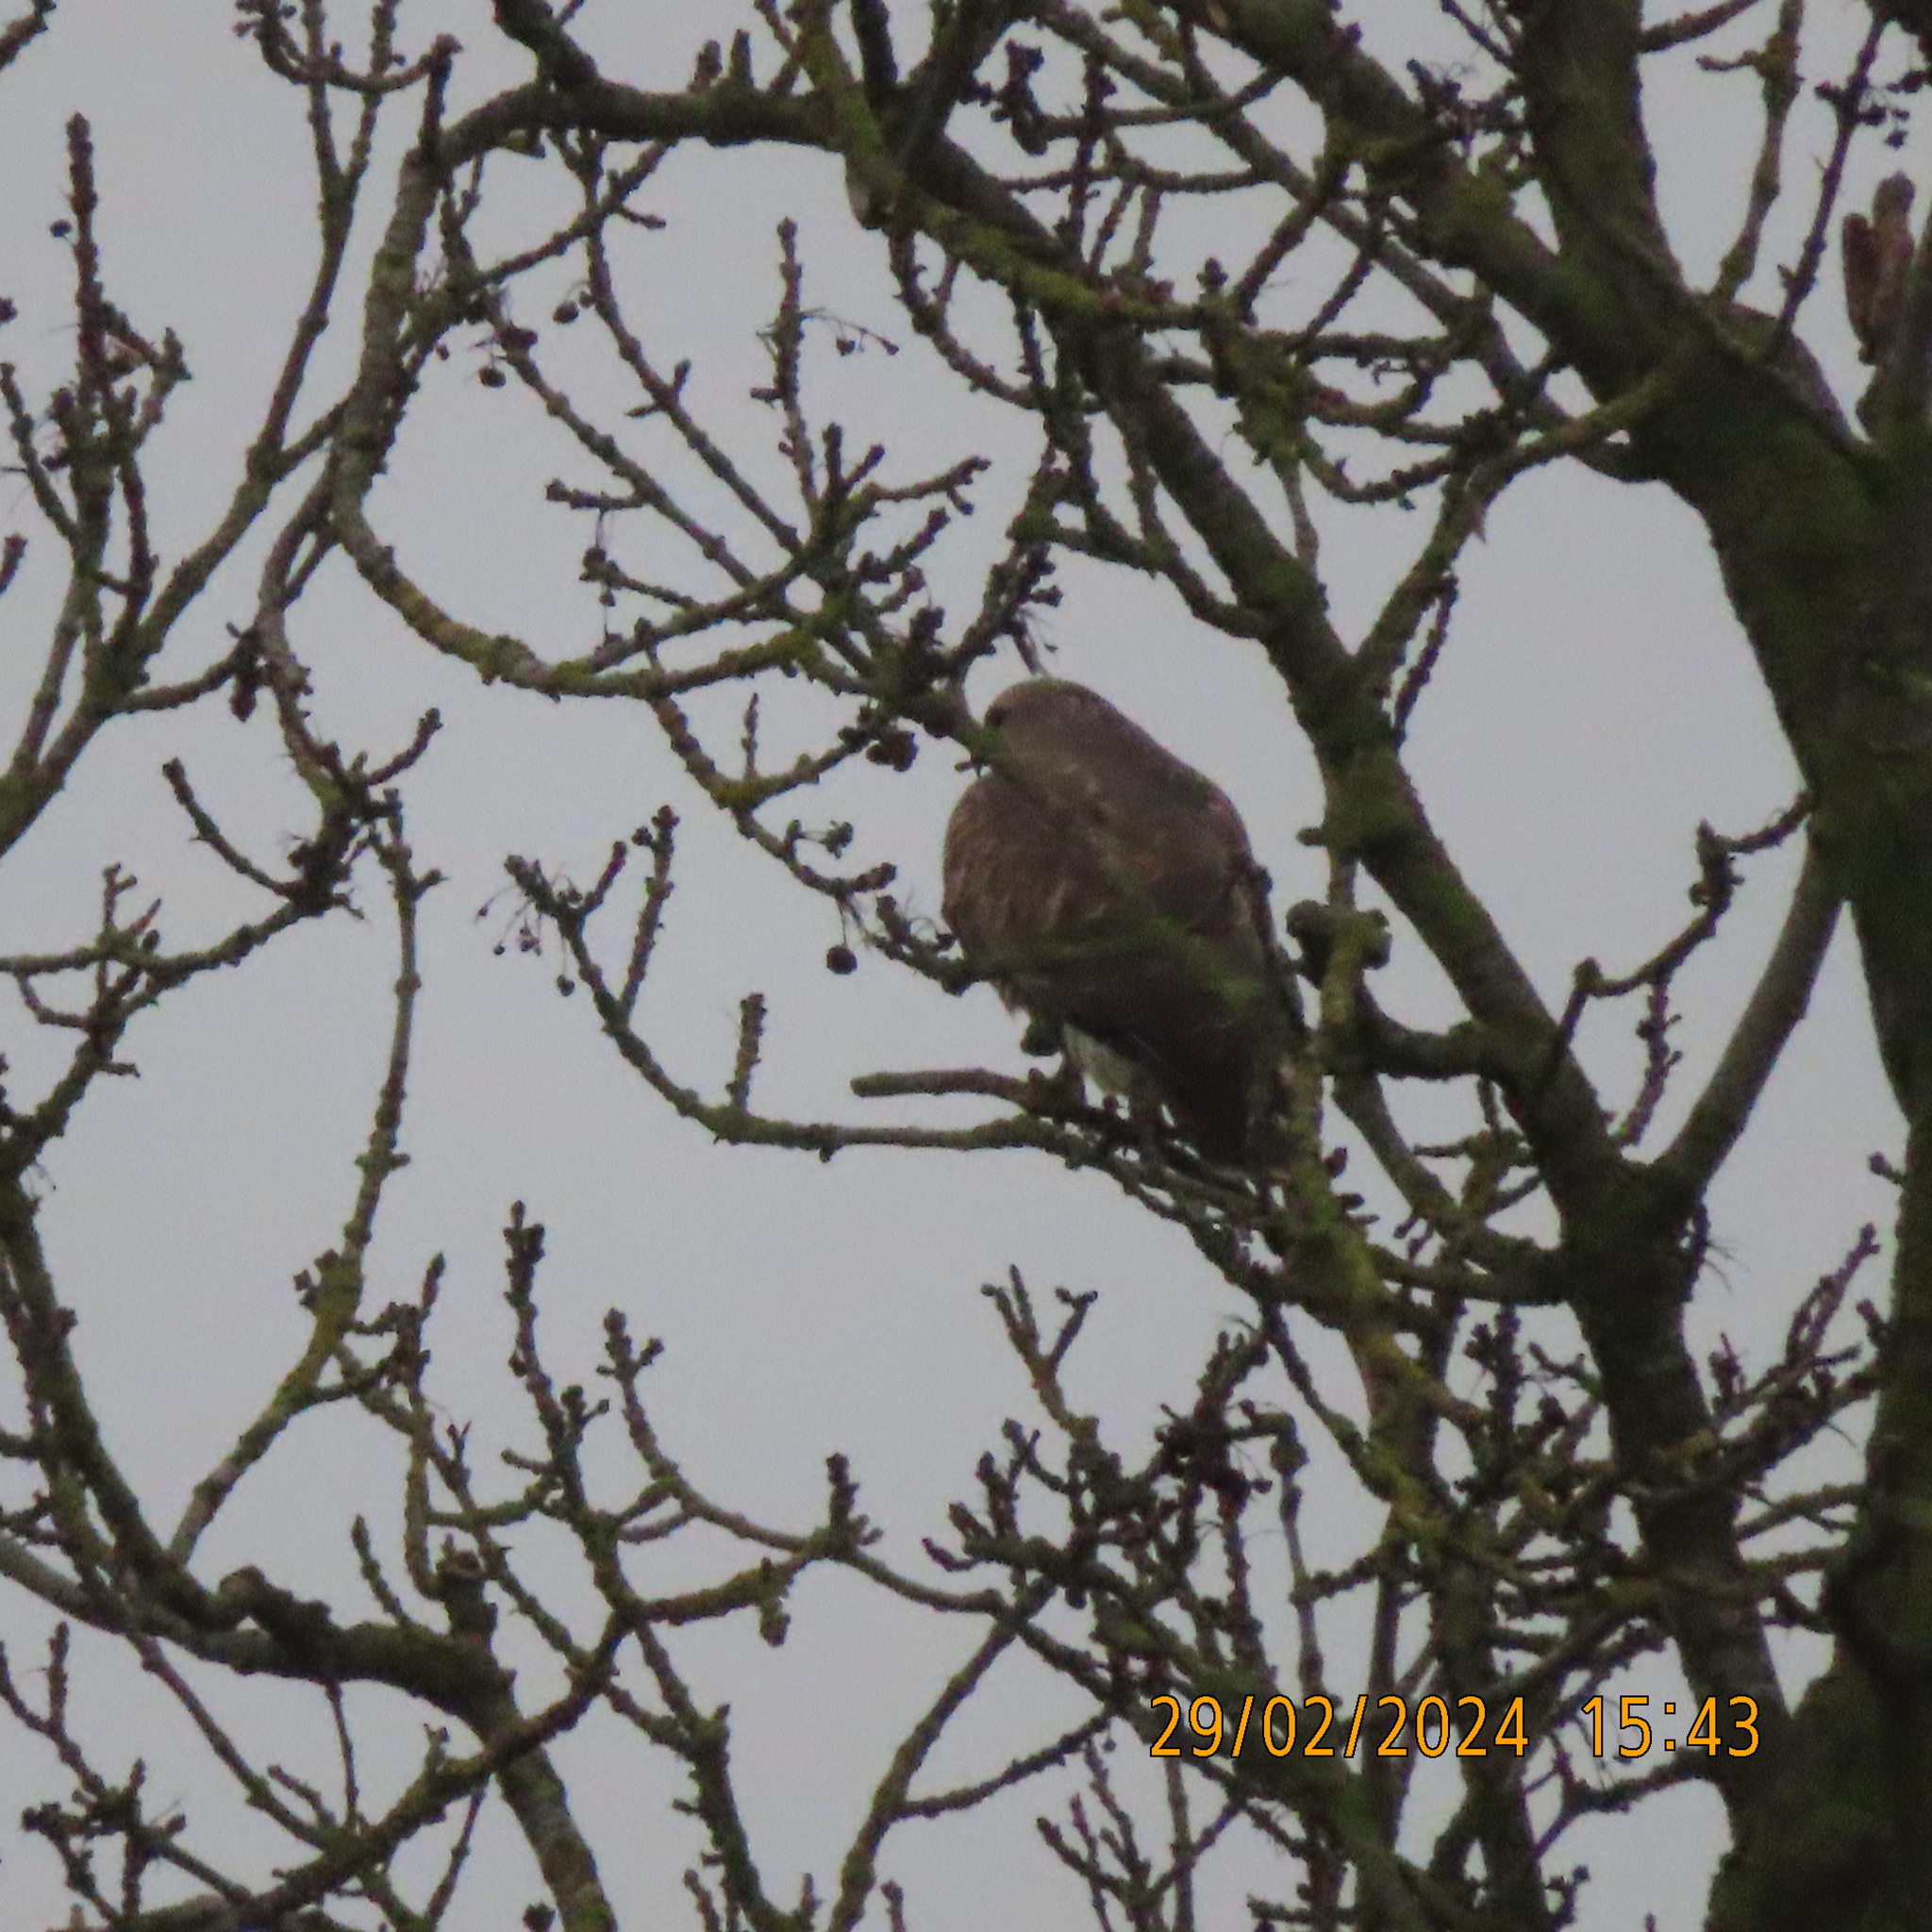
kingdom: Animalia
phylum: Chordata
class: Aves
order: Accipitriformes
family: Accipitridae
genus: Buteo
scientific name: Buteo buteo
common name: Common buzzard
